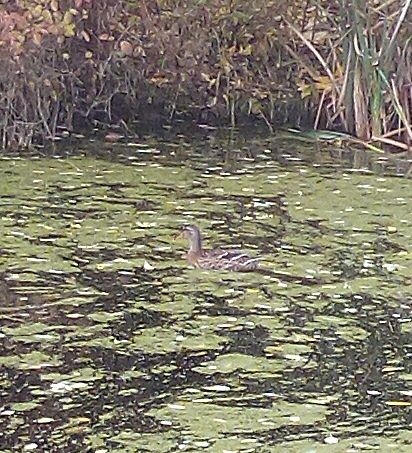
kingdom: Animalia
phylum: Chordata
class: Aves
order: Anseriformes
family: Anatidae
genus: Anas
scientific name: Anas platyrhynchos
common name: Mallard
